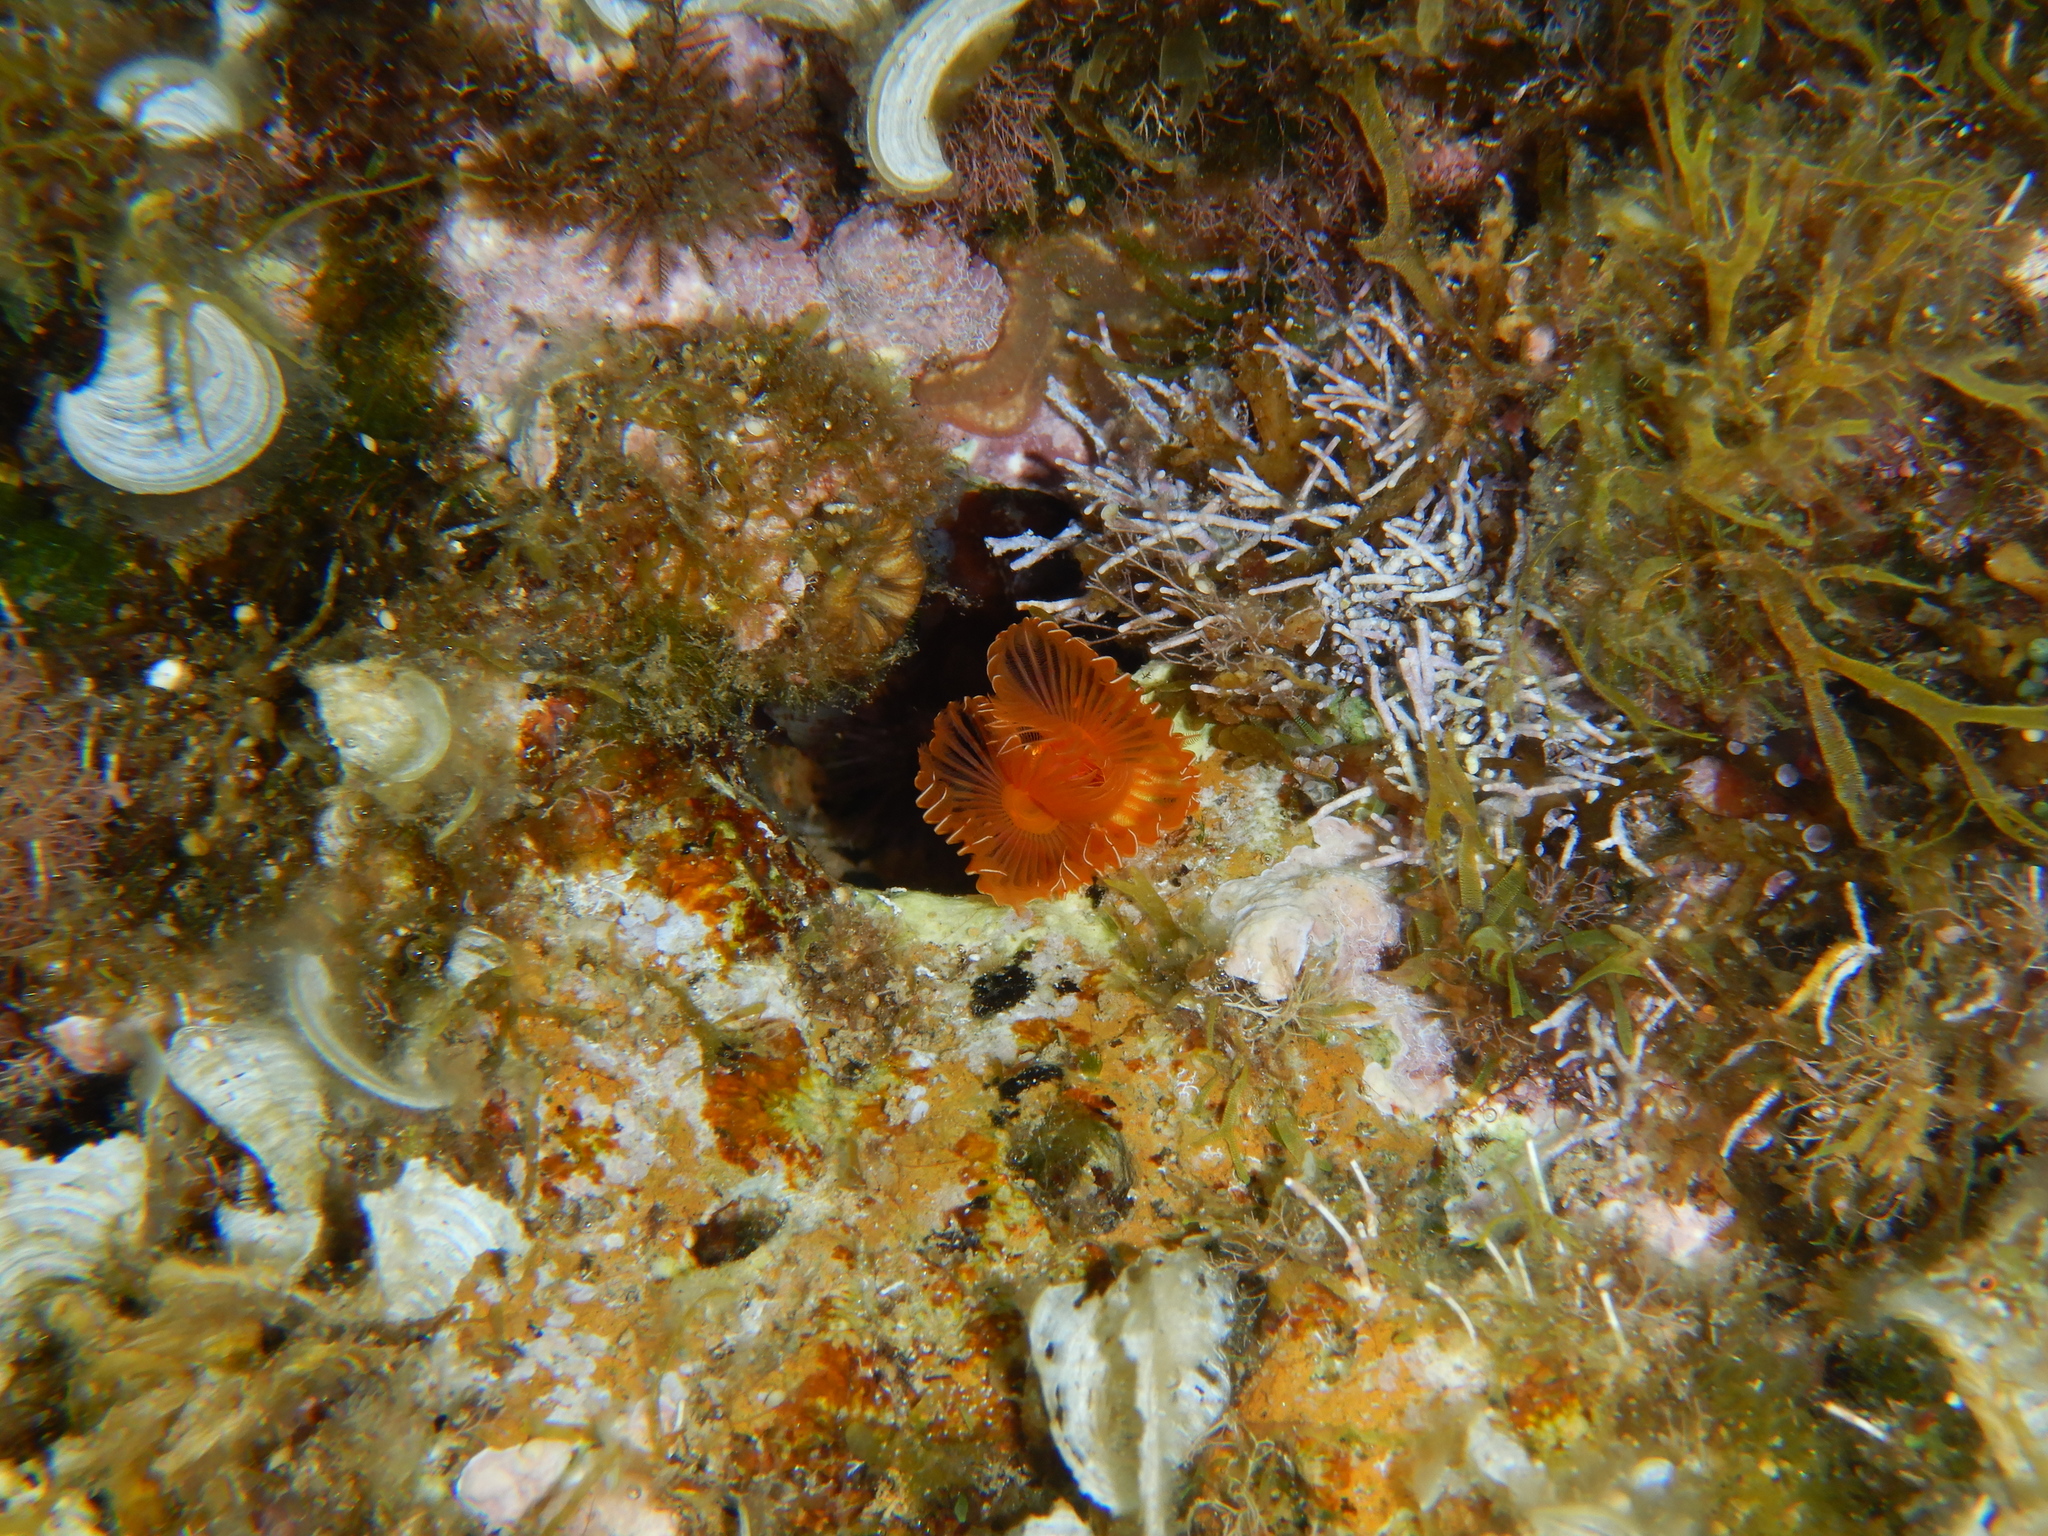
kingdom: Animalia
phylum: Annelida
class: Polychaeta
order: Sabellida
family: Serpulidae
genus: Protula
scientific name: Protula tubularia
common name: Red-spotted horseshoe
